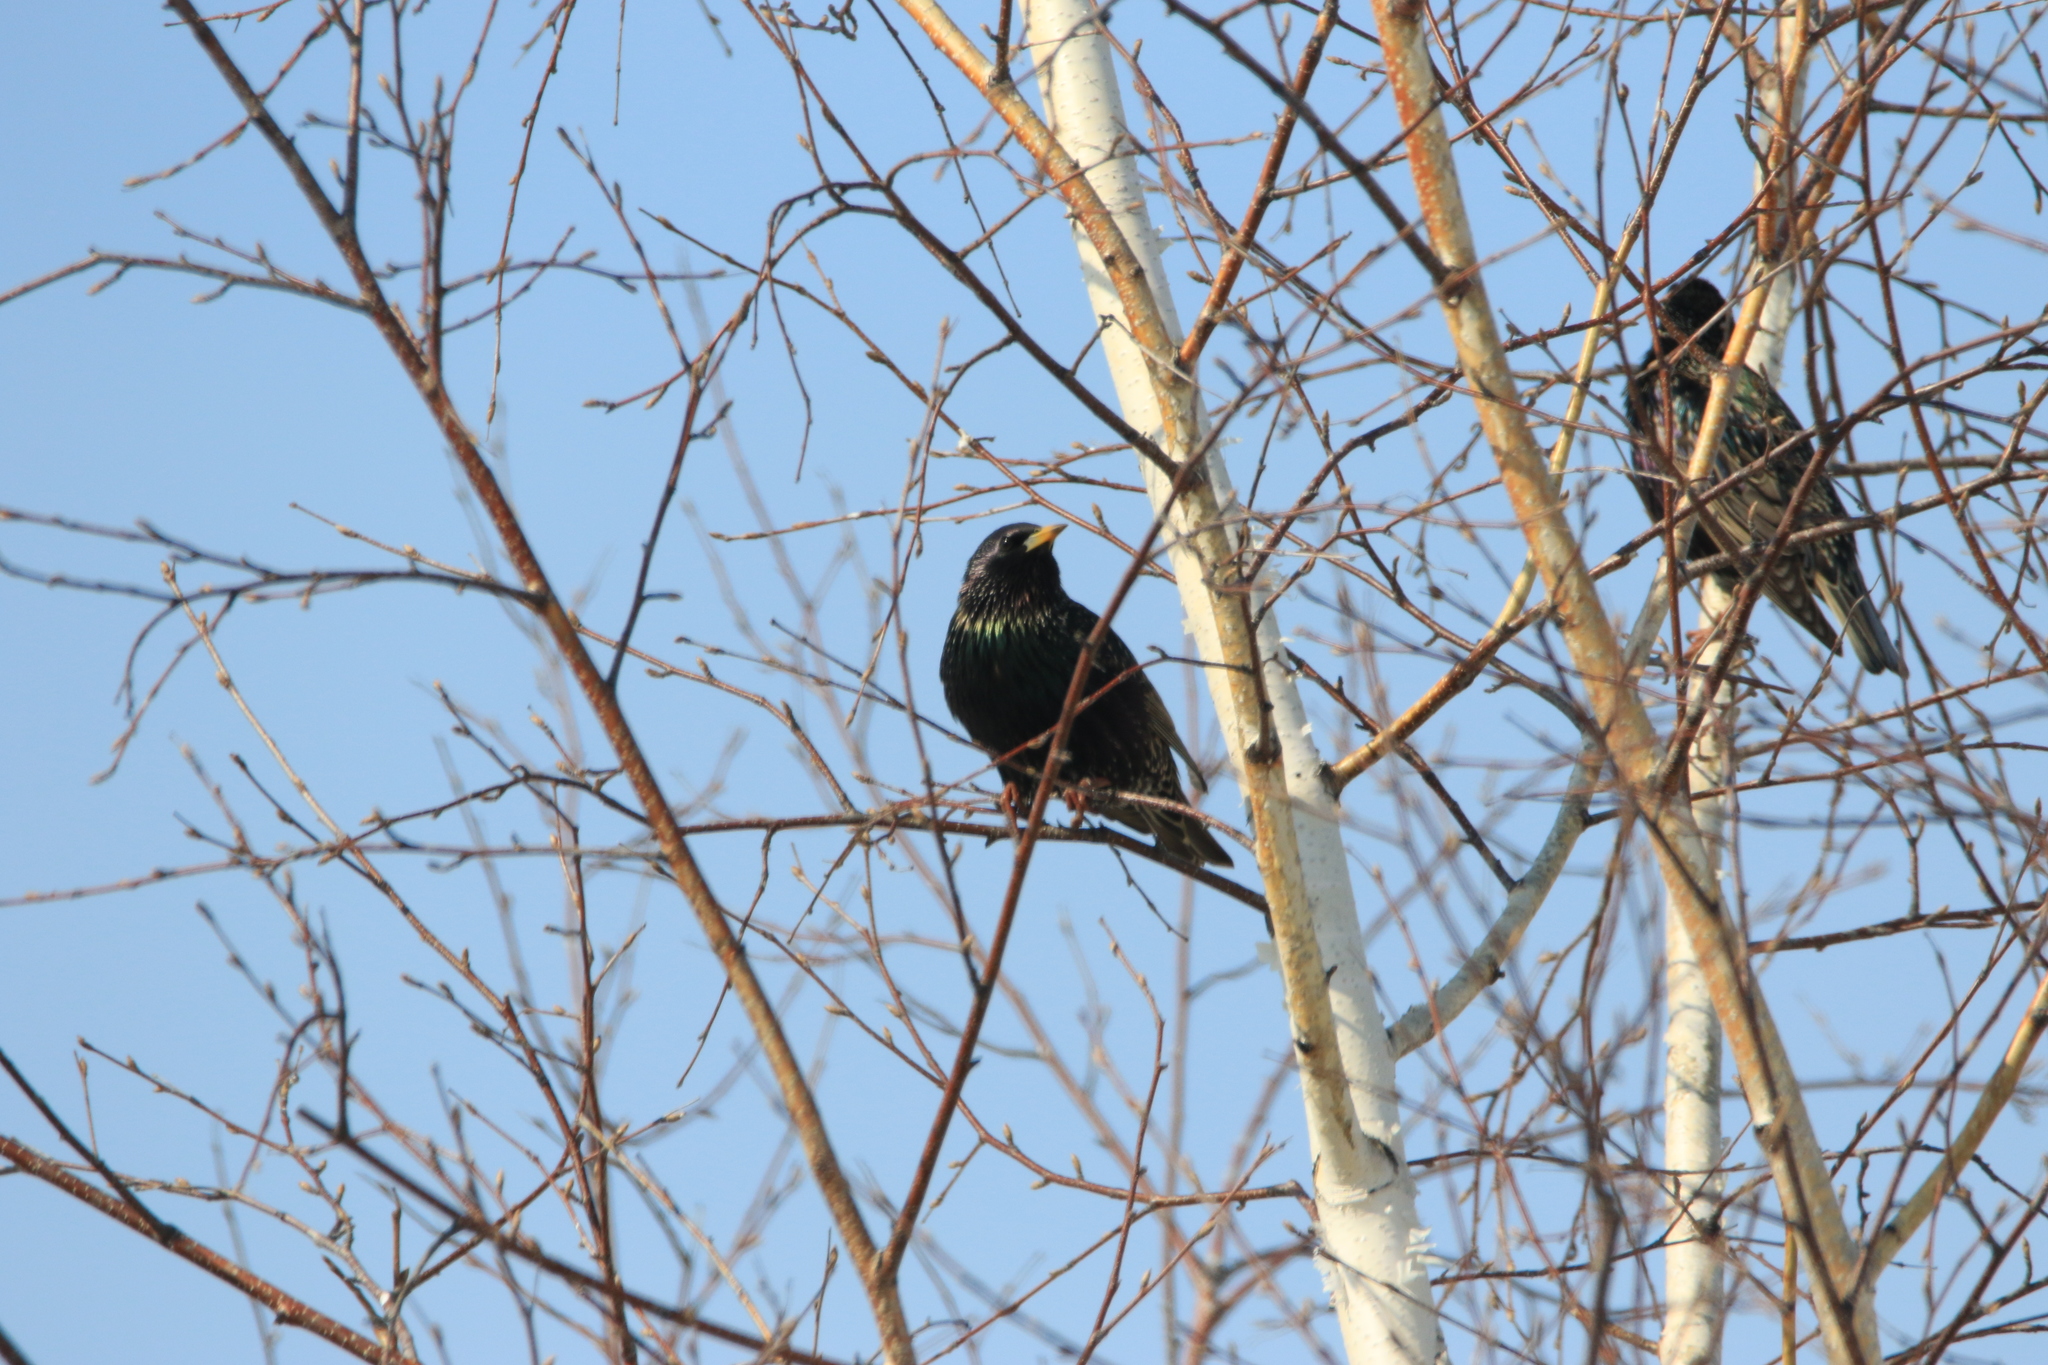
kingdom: Animalia
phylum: Chordata
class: Aves
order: Passeriformes
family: Sturnidae
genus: Sturnus
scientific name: Sturnus vulgaris
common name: Common starling
